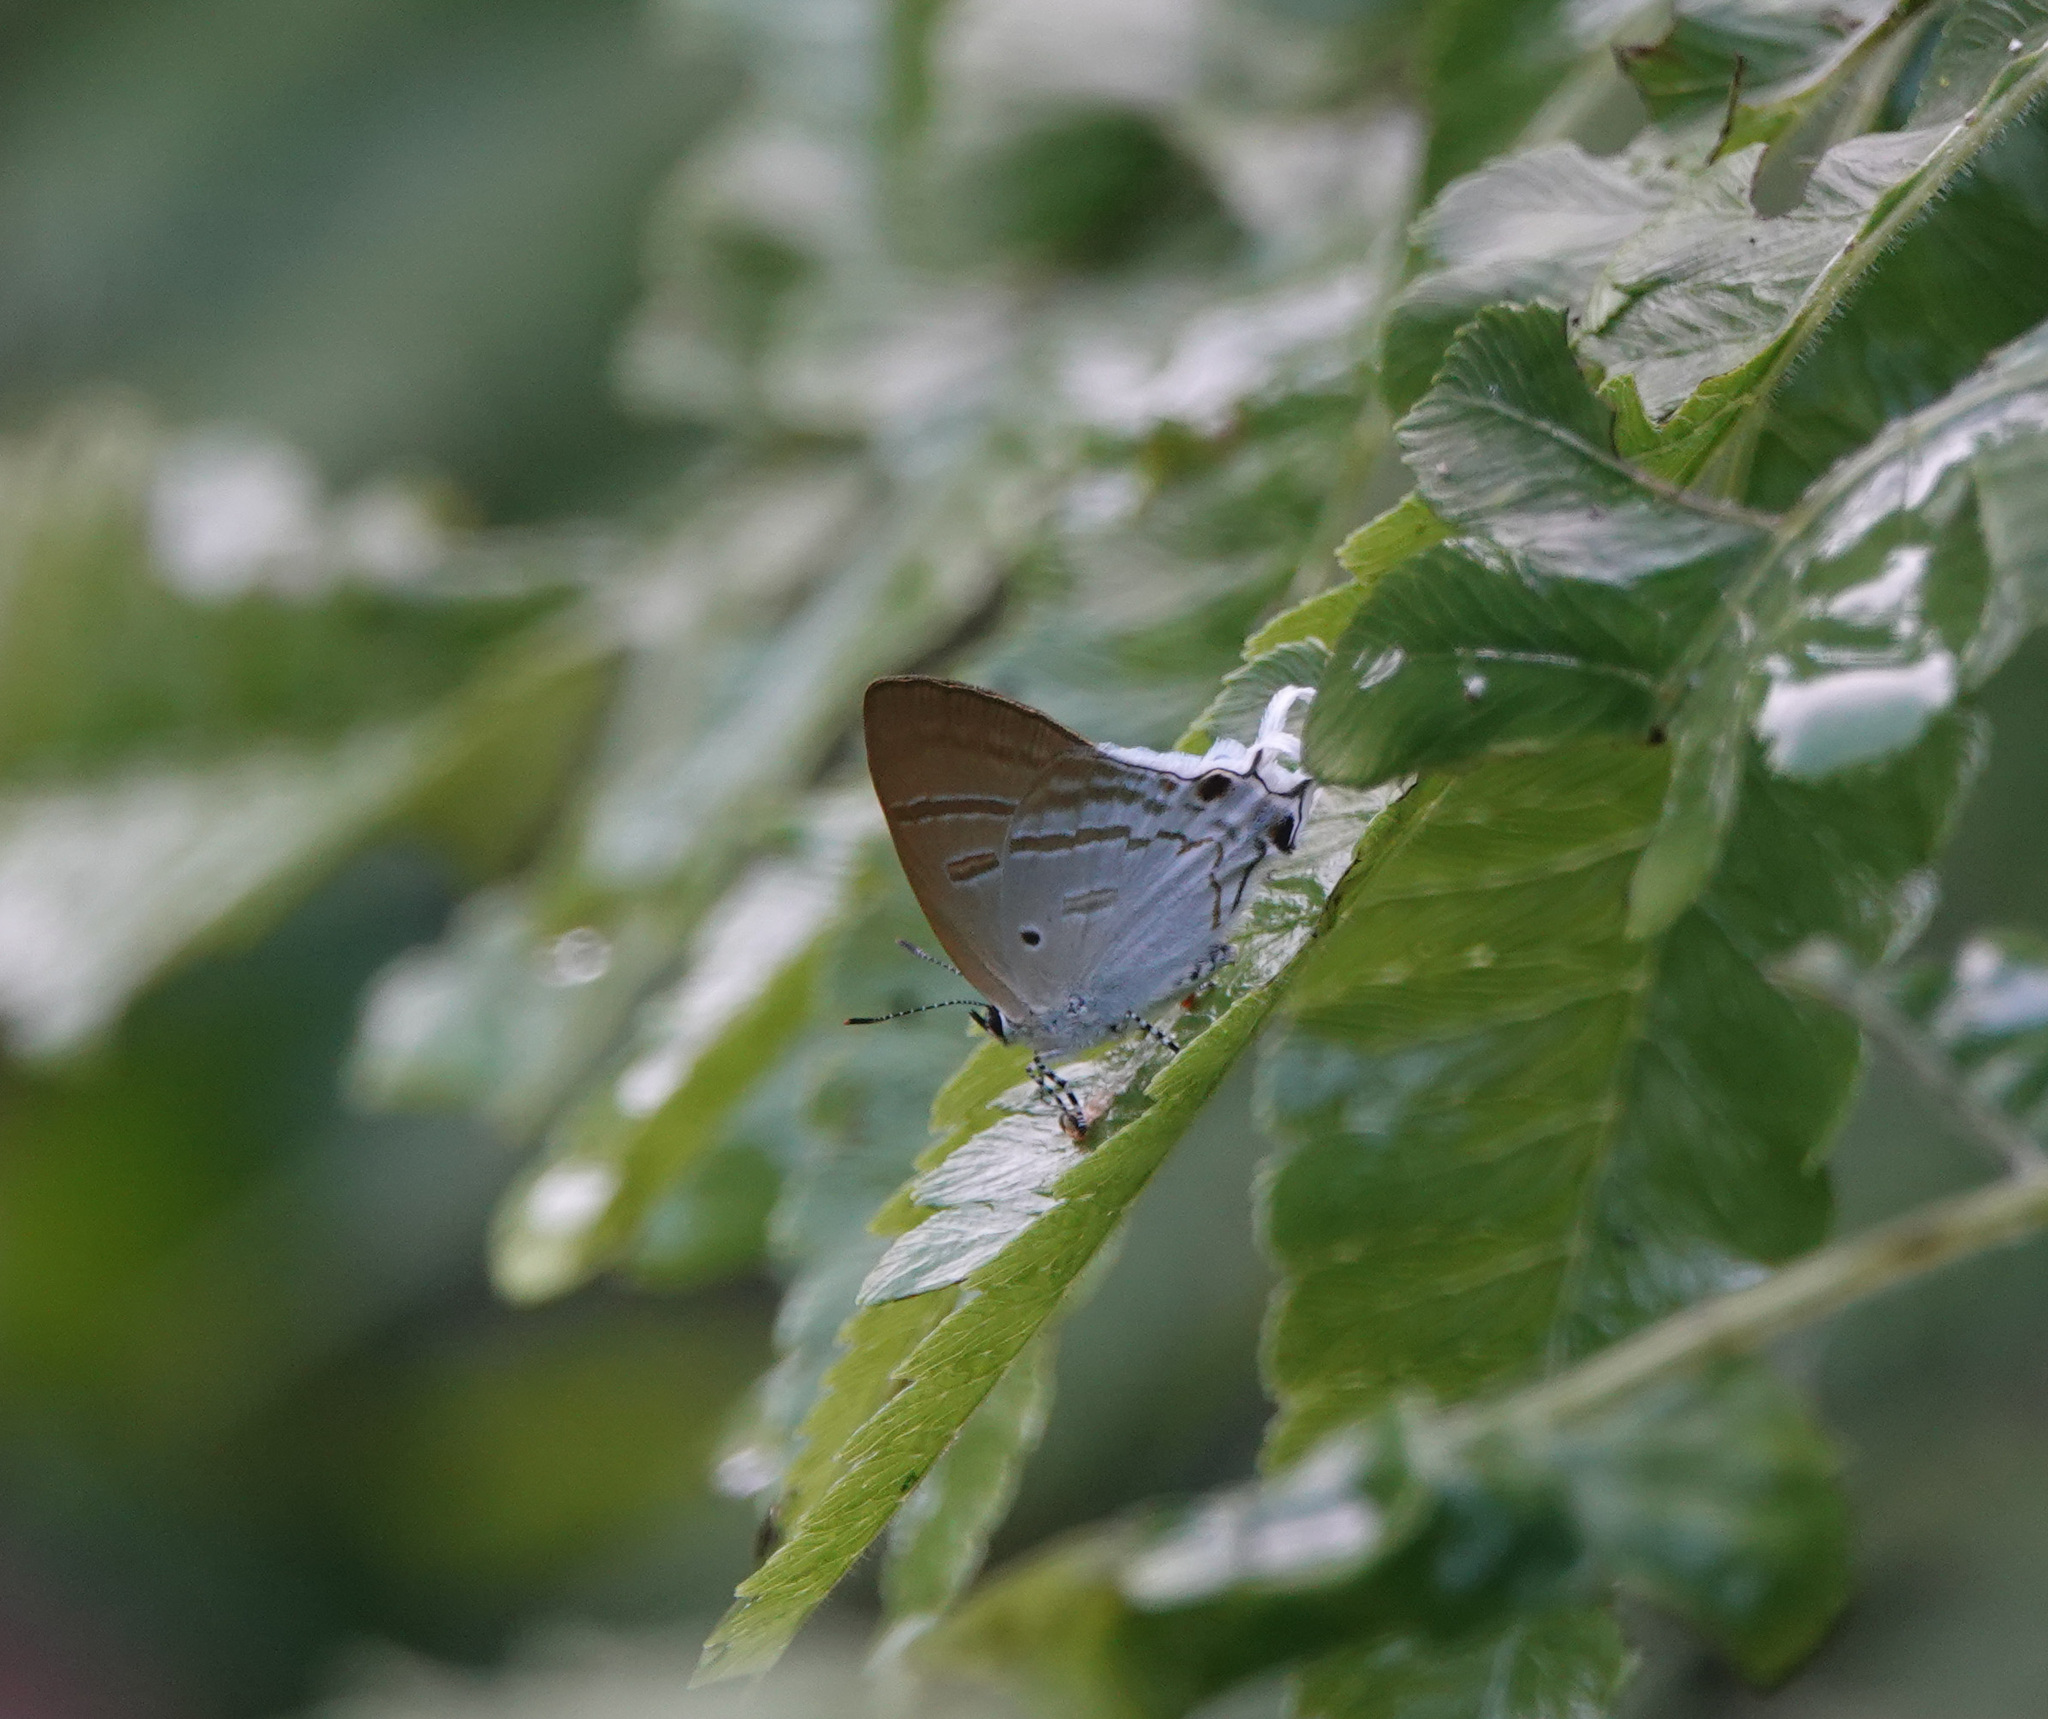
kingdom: Animalia
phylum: Arthropoda
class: Insecta
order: Lepidoptera
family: Lycaenidae
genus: Zeltus
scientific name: Zeltus amasa
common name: Fluffy tit
